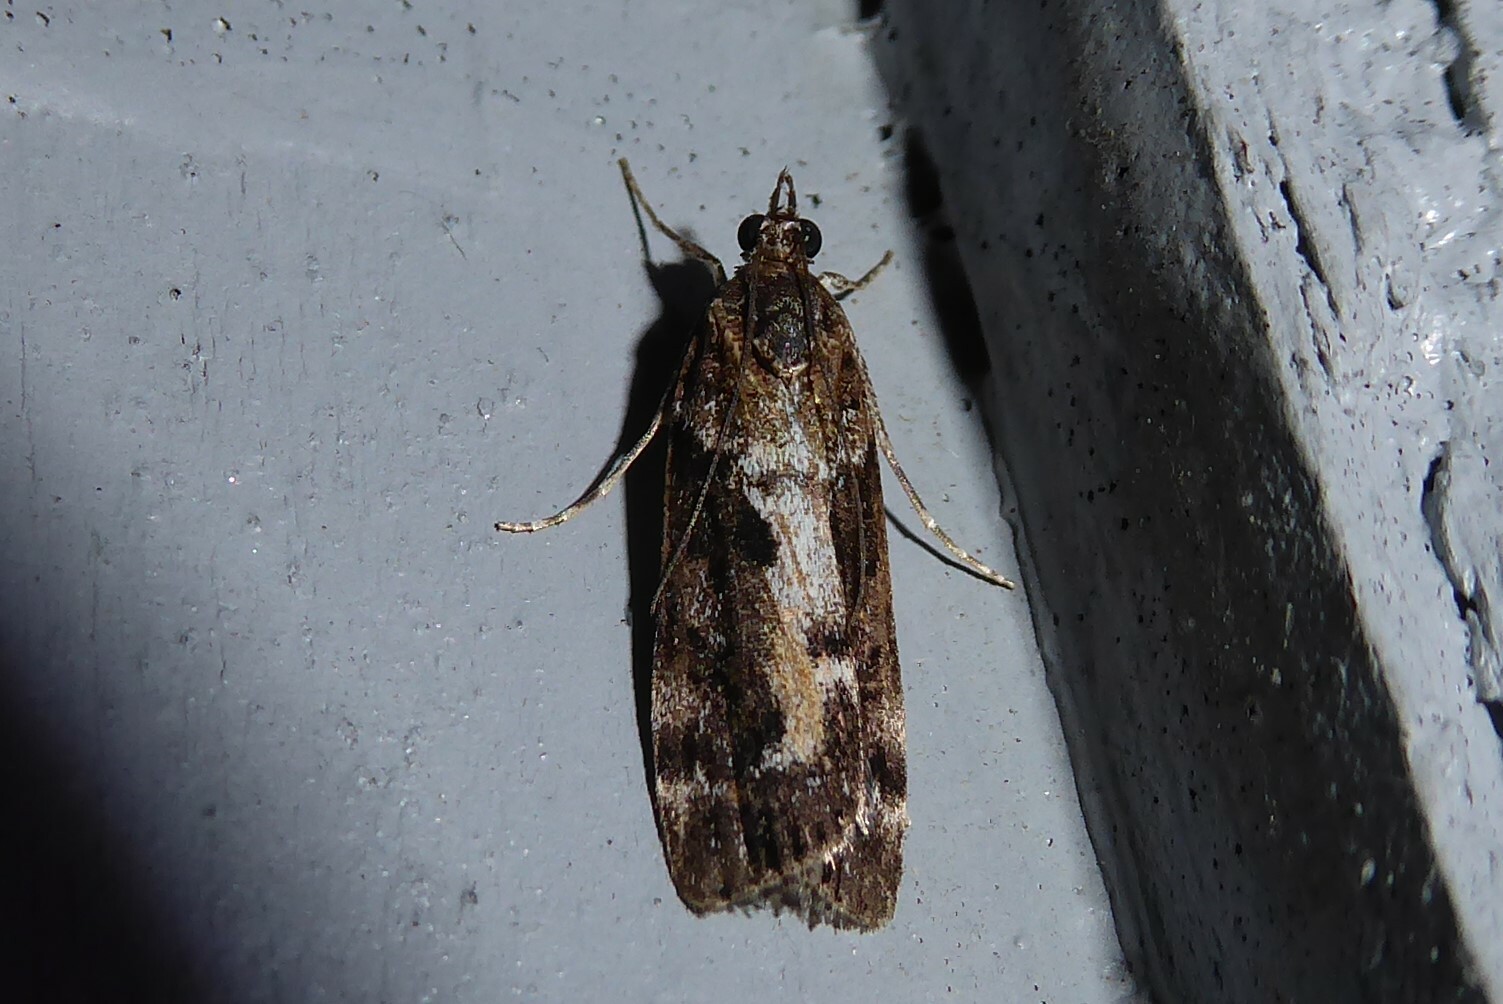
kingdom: Animalia
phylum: Arthropoda
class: Insecta
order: Lepidoptera
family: Crambidae
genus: Eudonia
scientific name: Eudonia submarginalis
